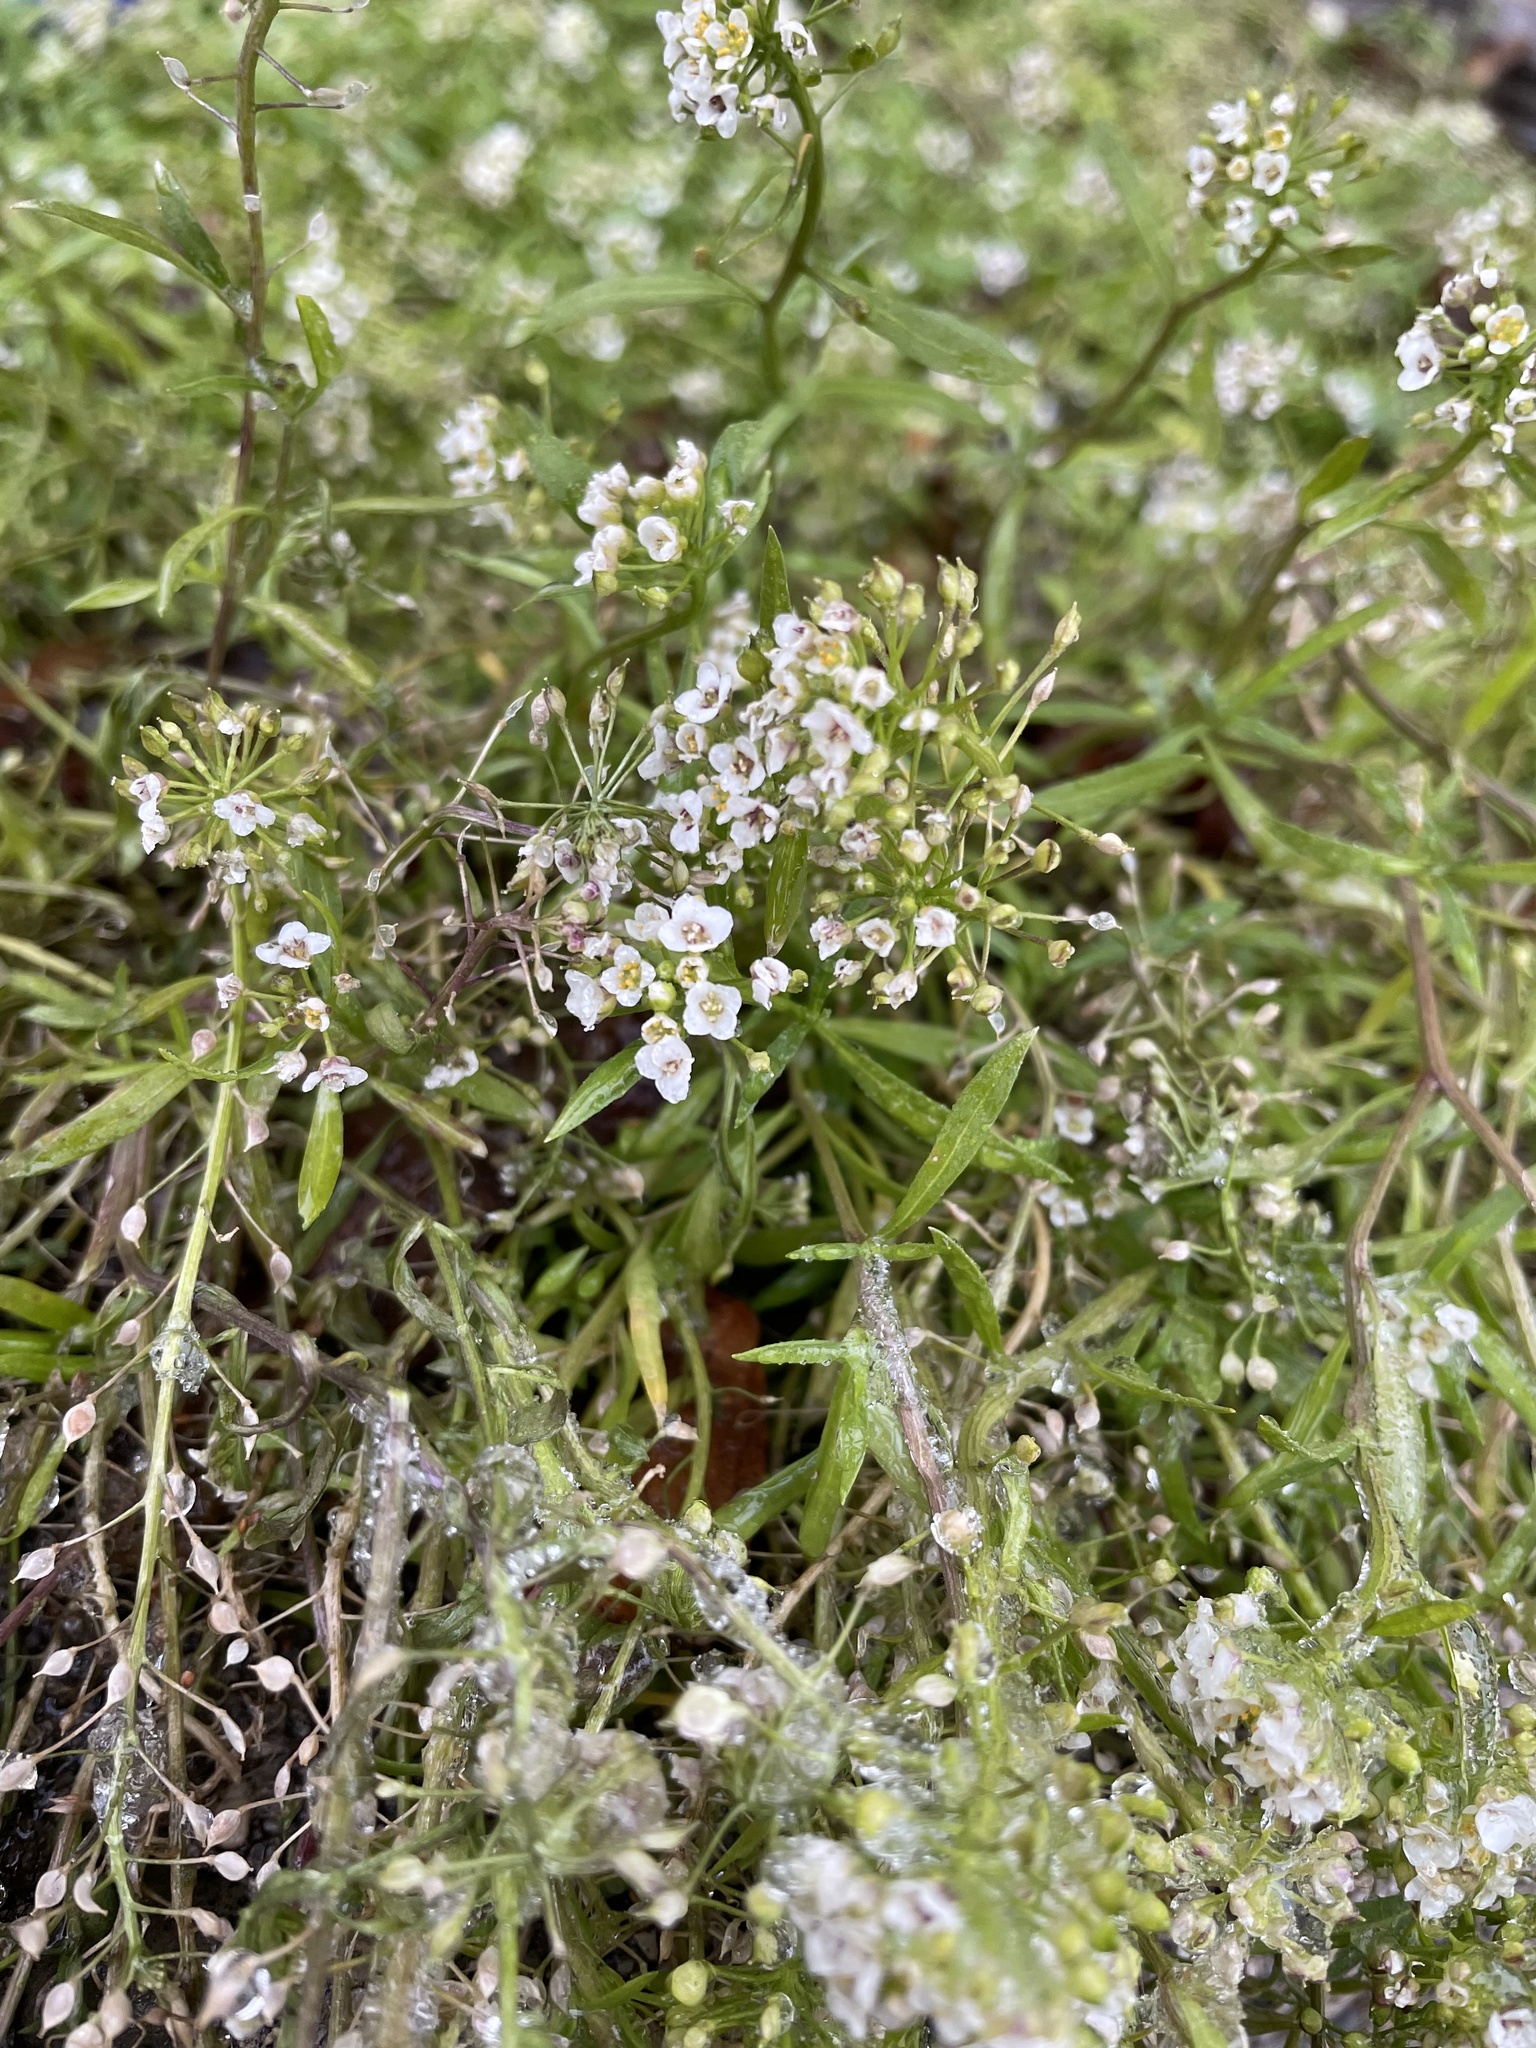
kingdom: Plantae
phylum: Tracheophyta
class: Magnoliopsida
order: Brassicales
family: Brassicaceae
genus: Lobularia
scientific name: Lobularia maritima
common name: Sweet alison
